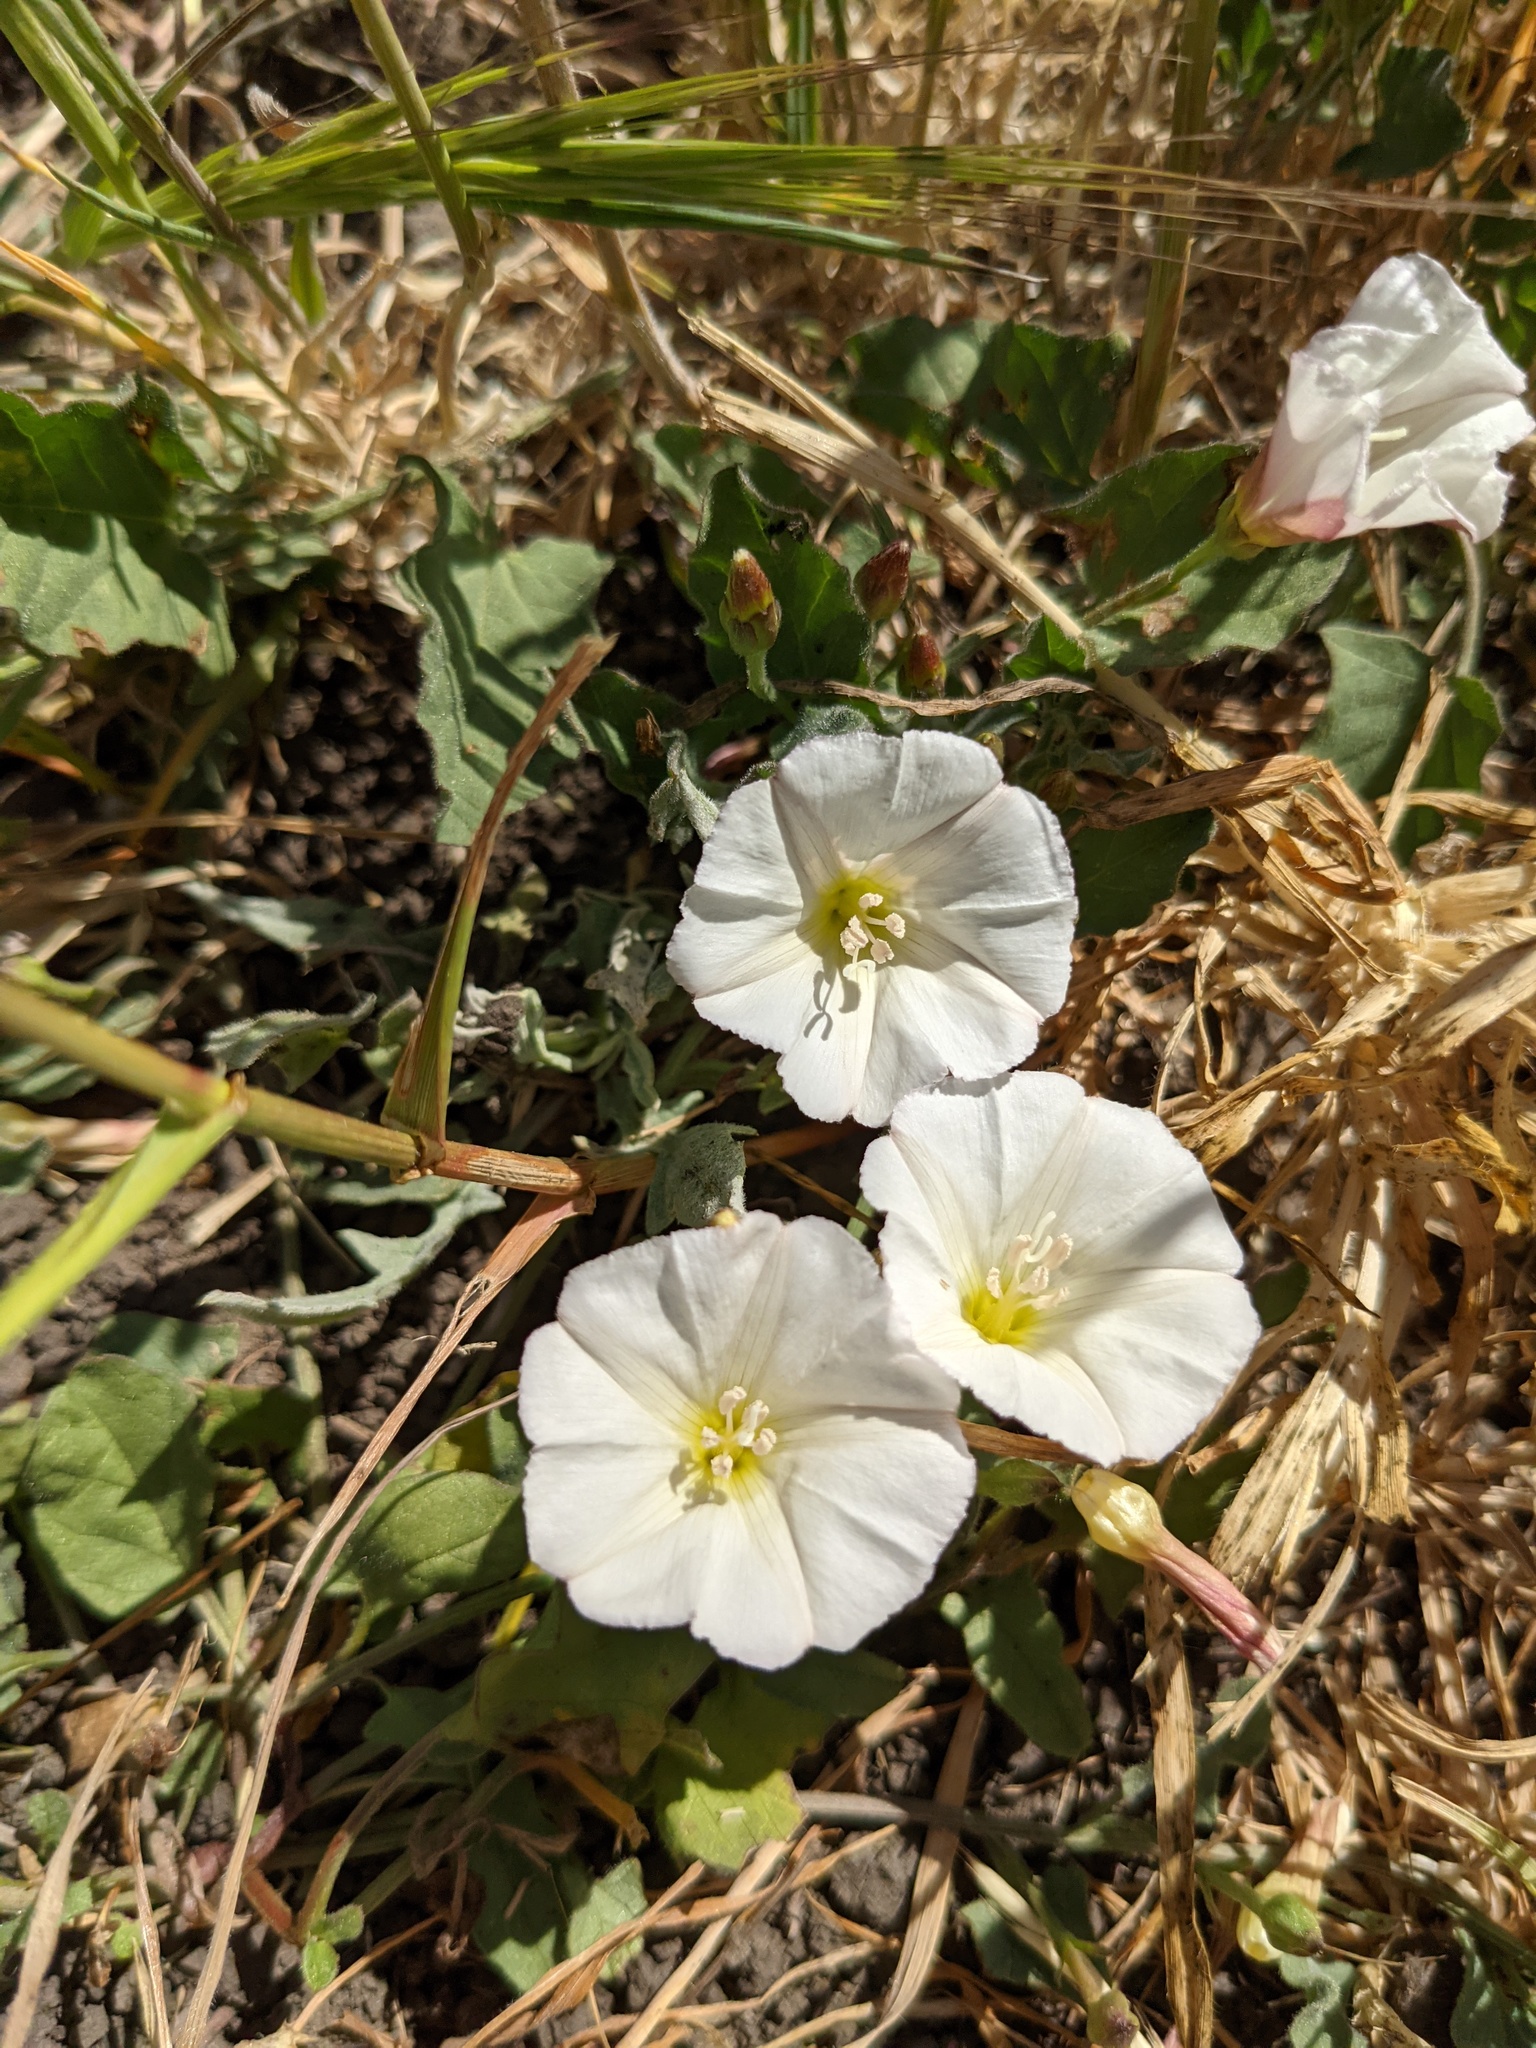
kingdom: Plantae
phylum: Tracheophyta
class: Magnoliopsida
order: Solanales
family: Convolvulaceae
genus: Convolvulus
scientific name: Convolvulus arvensis
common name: Field bindweed
